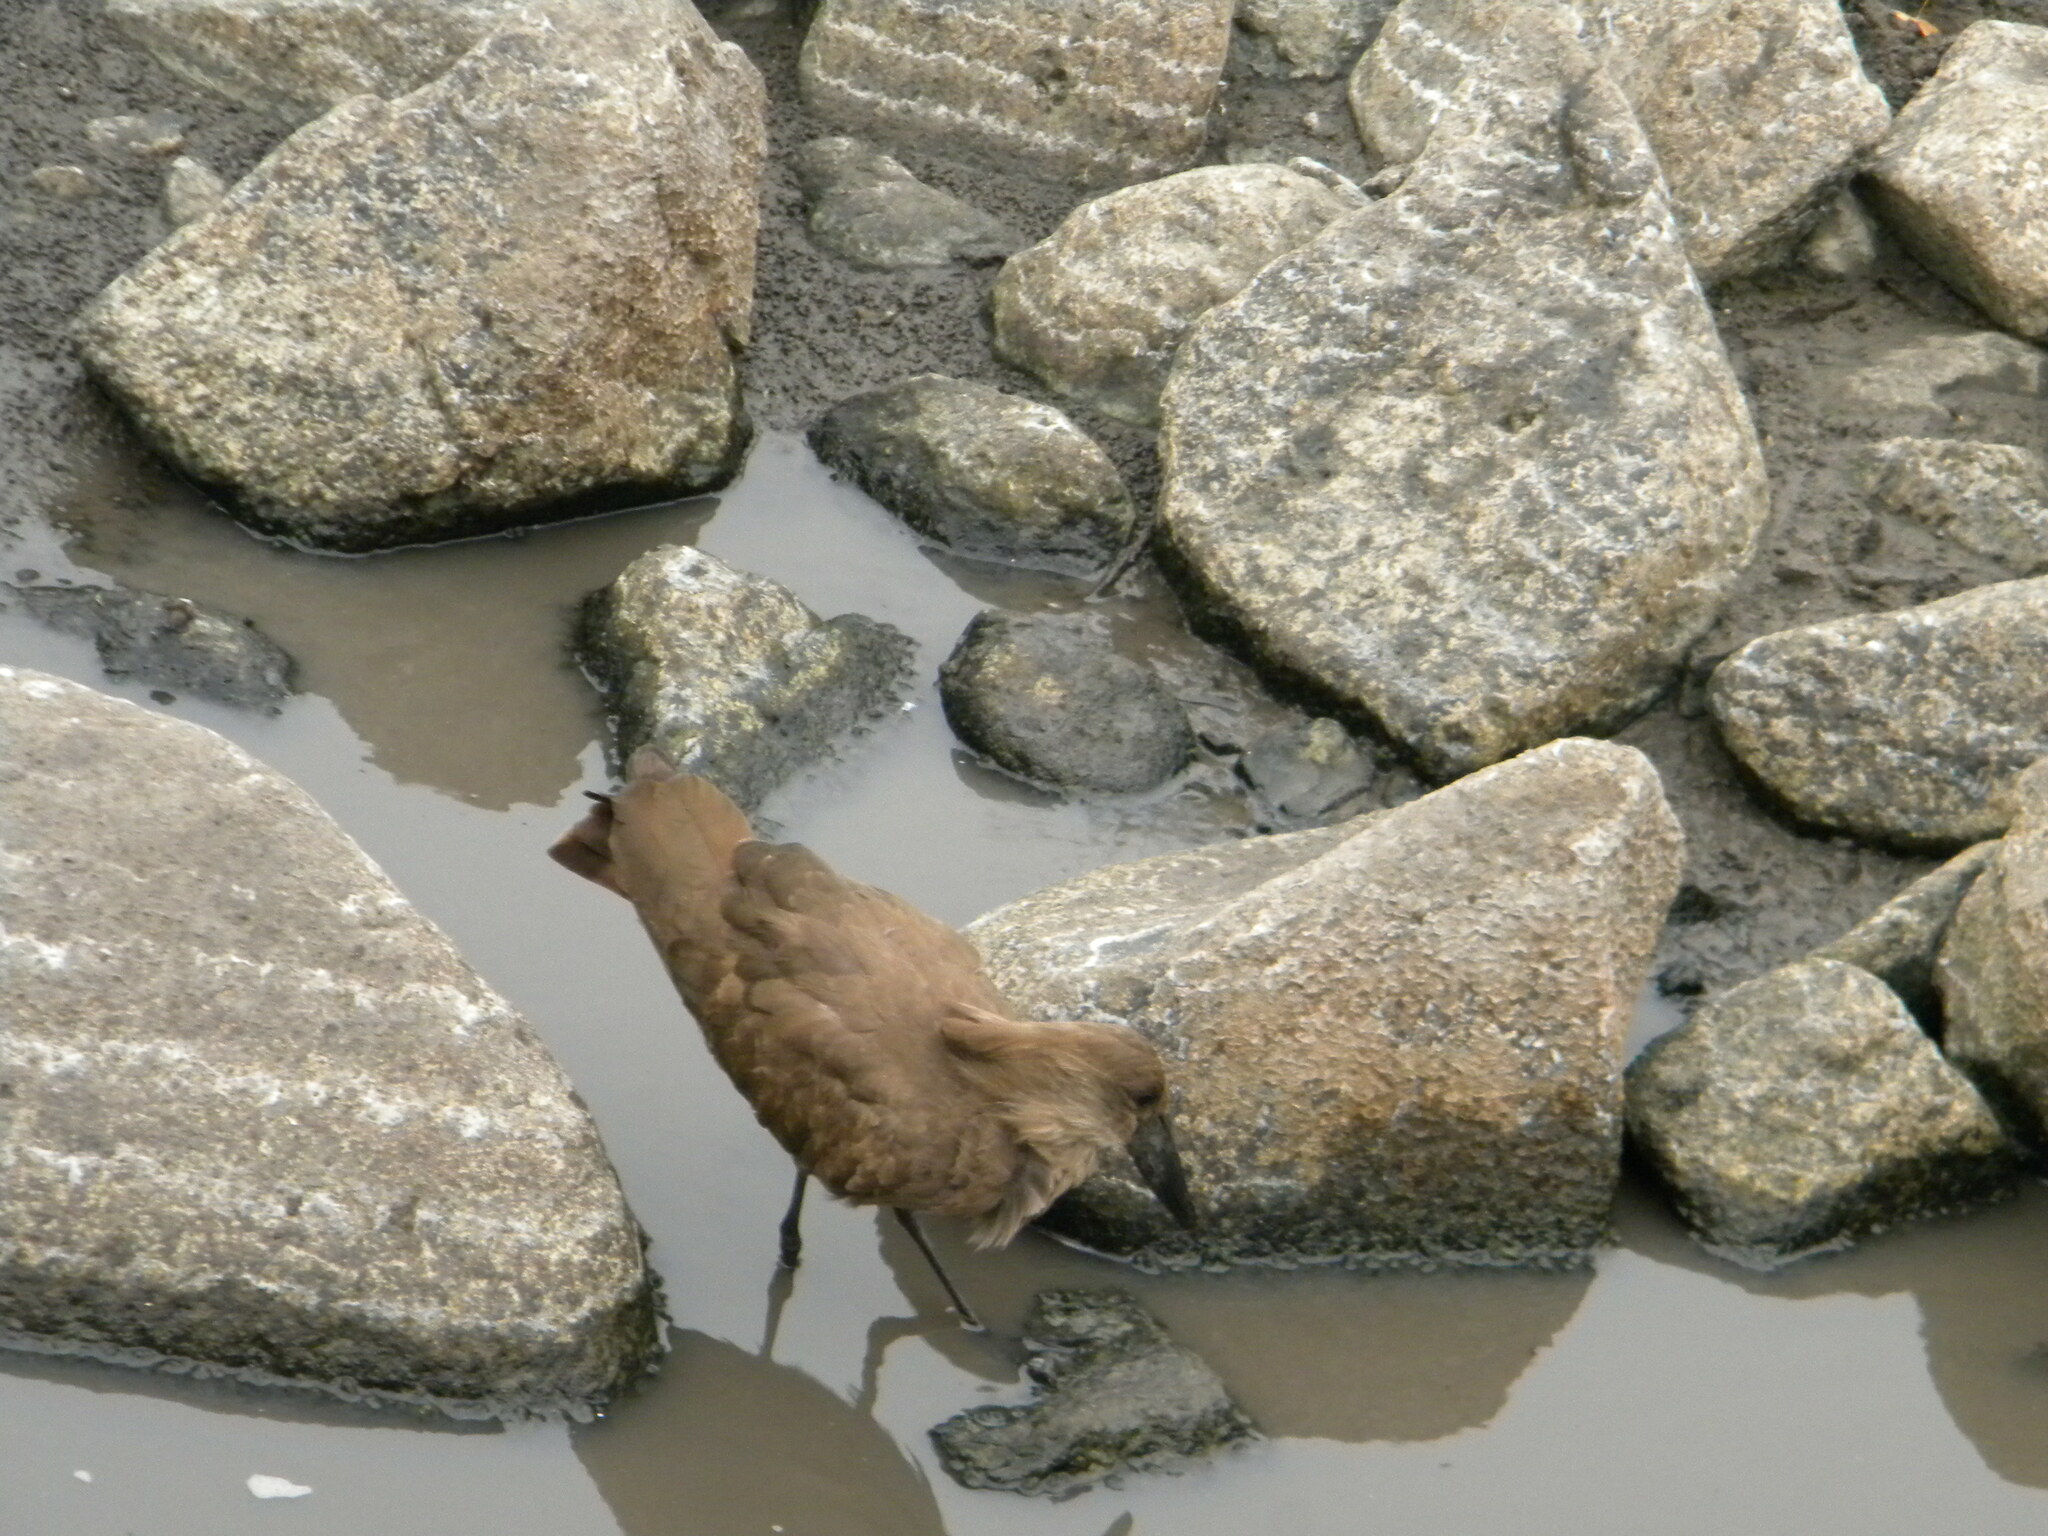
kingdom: Animalia
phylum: Chordata
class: Aves
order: Pelecaniformes
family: Scopidae
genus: Scopus
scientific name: Scopus umbretta
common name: Hamerkop
